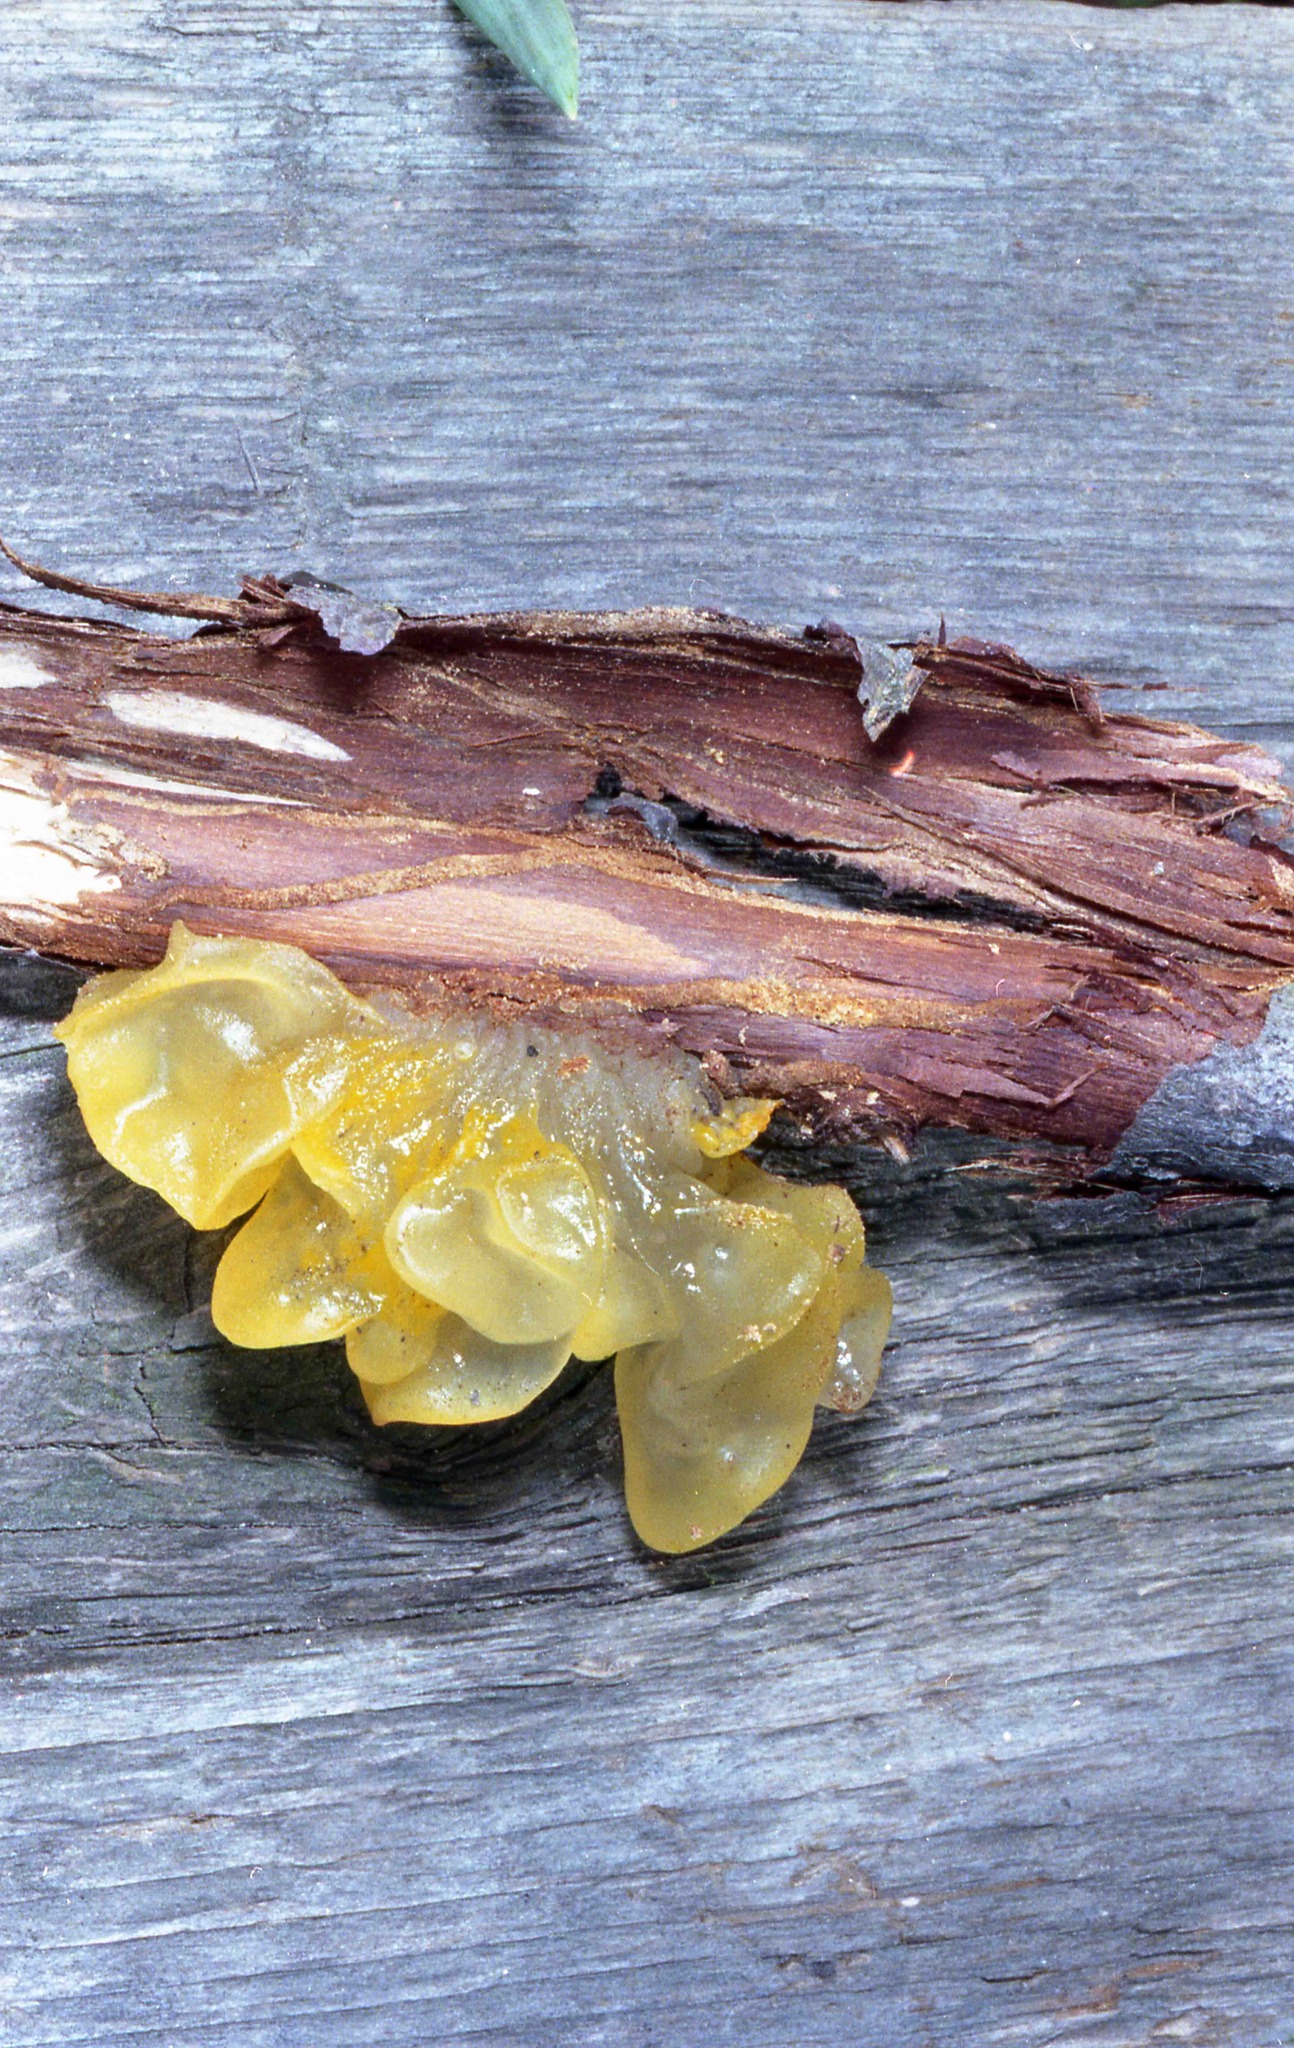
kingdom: Fungi
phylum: Basidiomycota
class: Tremellomycetes
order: Tremellales
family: Tremellaceae
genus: Tremella
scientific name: Tremella mesenterica
